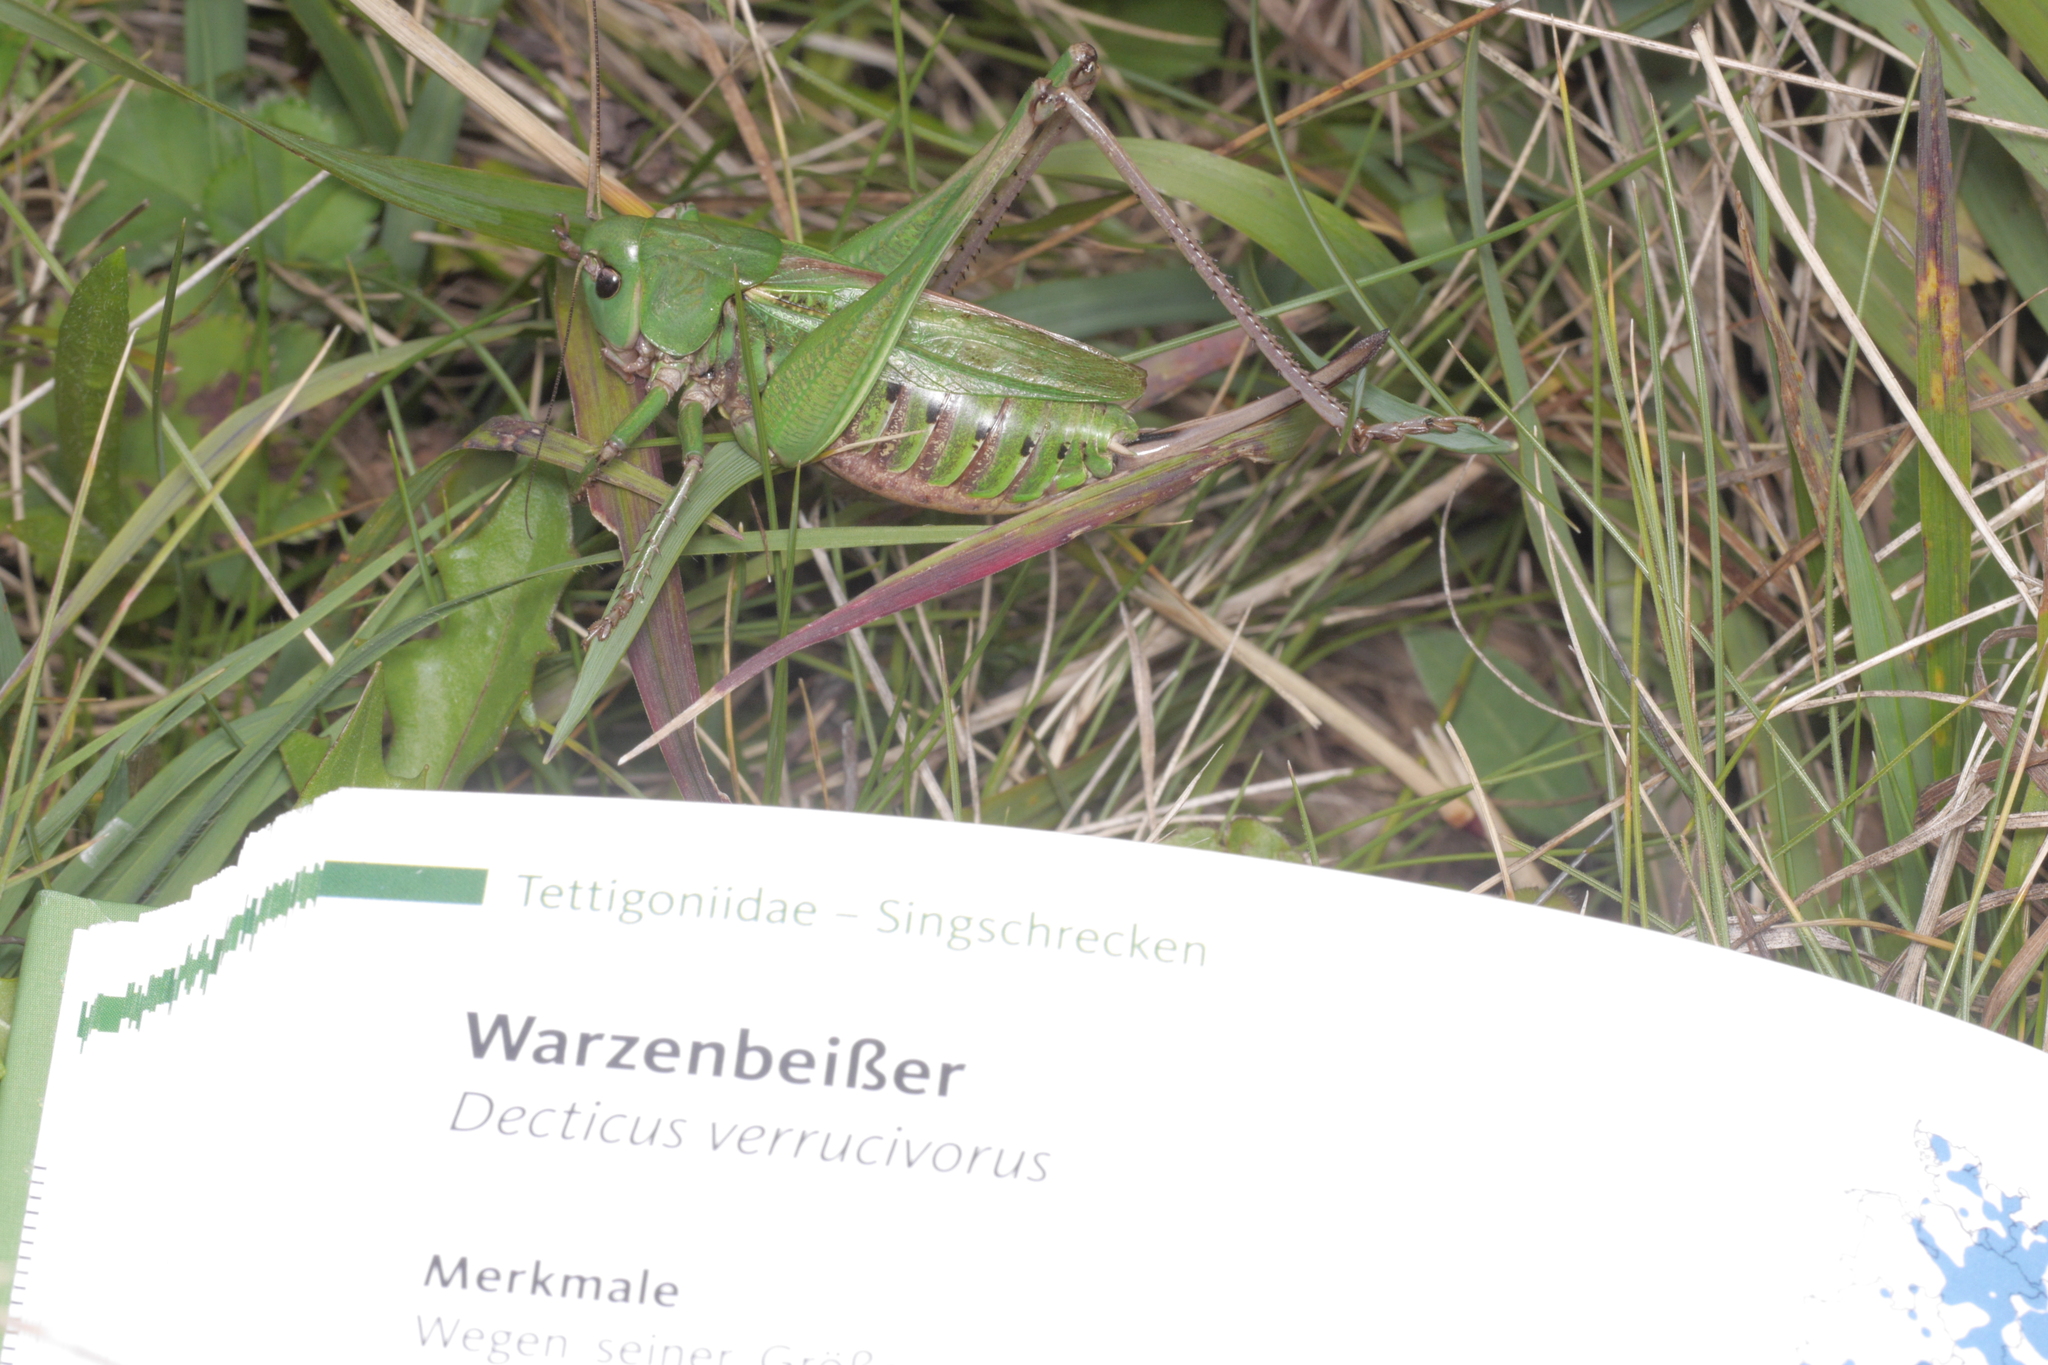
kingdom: Animalia
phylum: Arthropoda
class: Insecta
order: Orthoptera
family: Tettigoniidae
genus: Decticus
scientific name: Decticus verrucivorus
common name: Wart-biter
